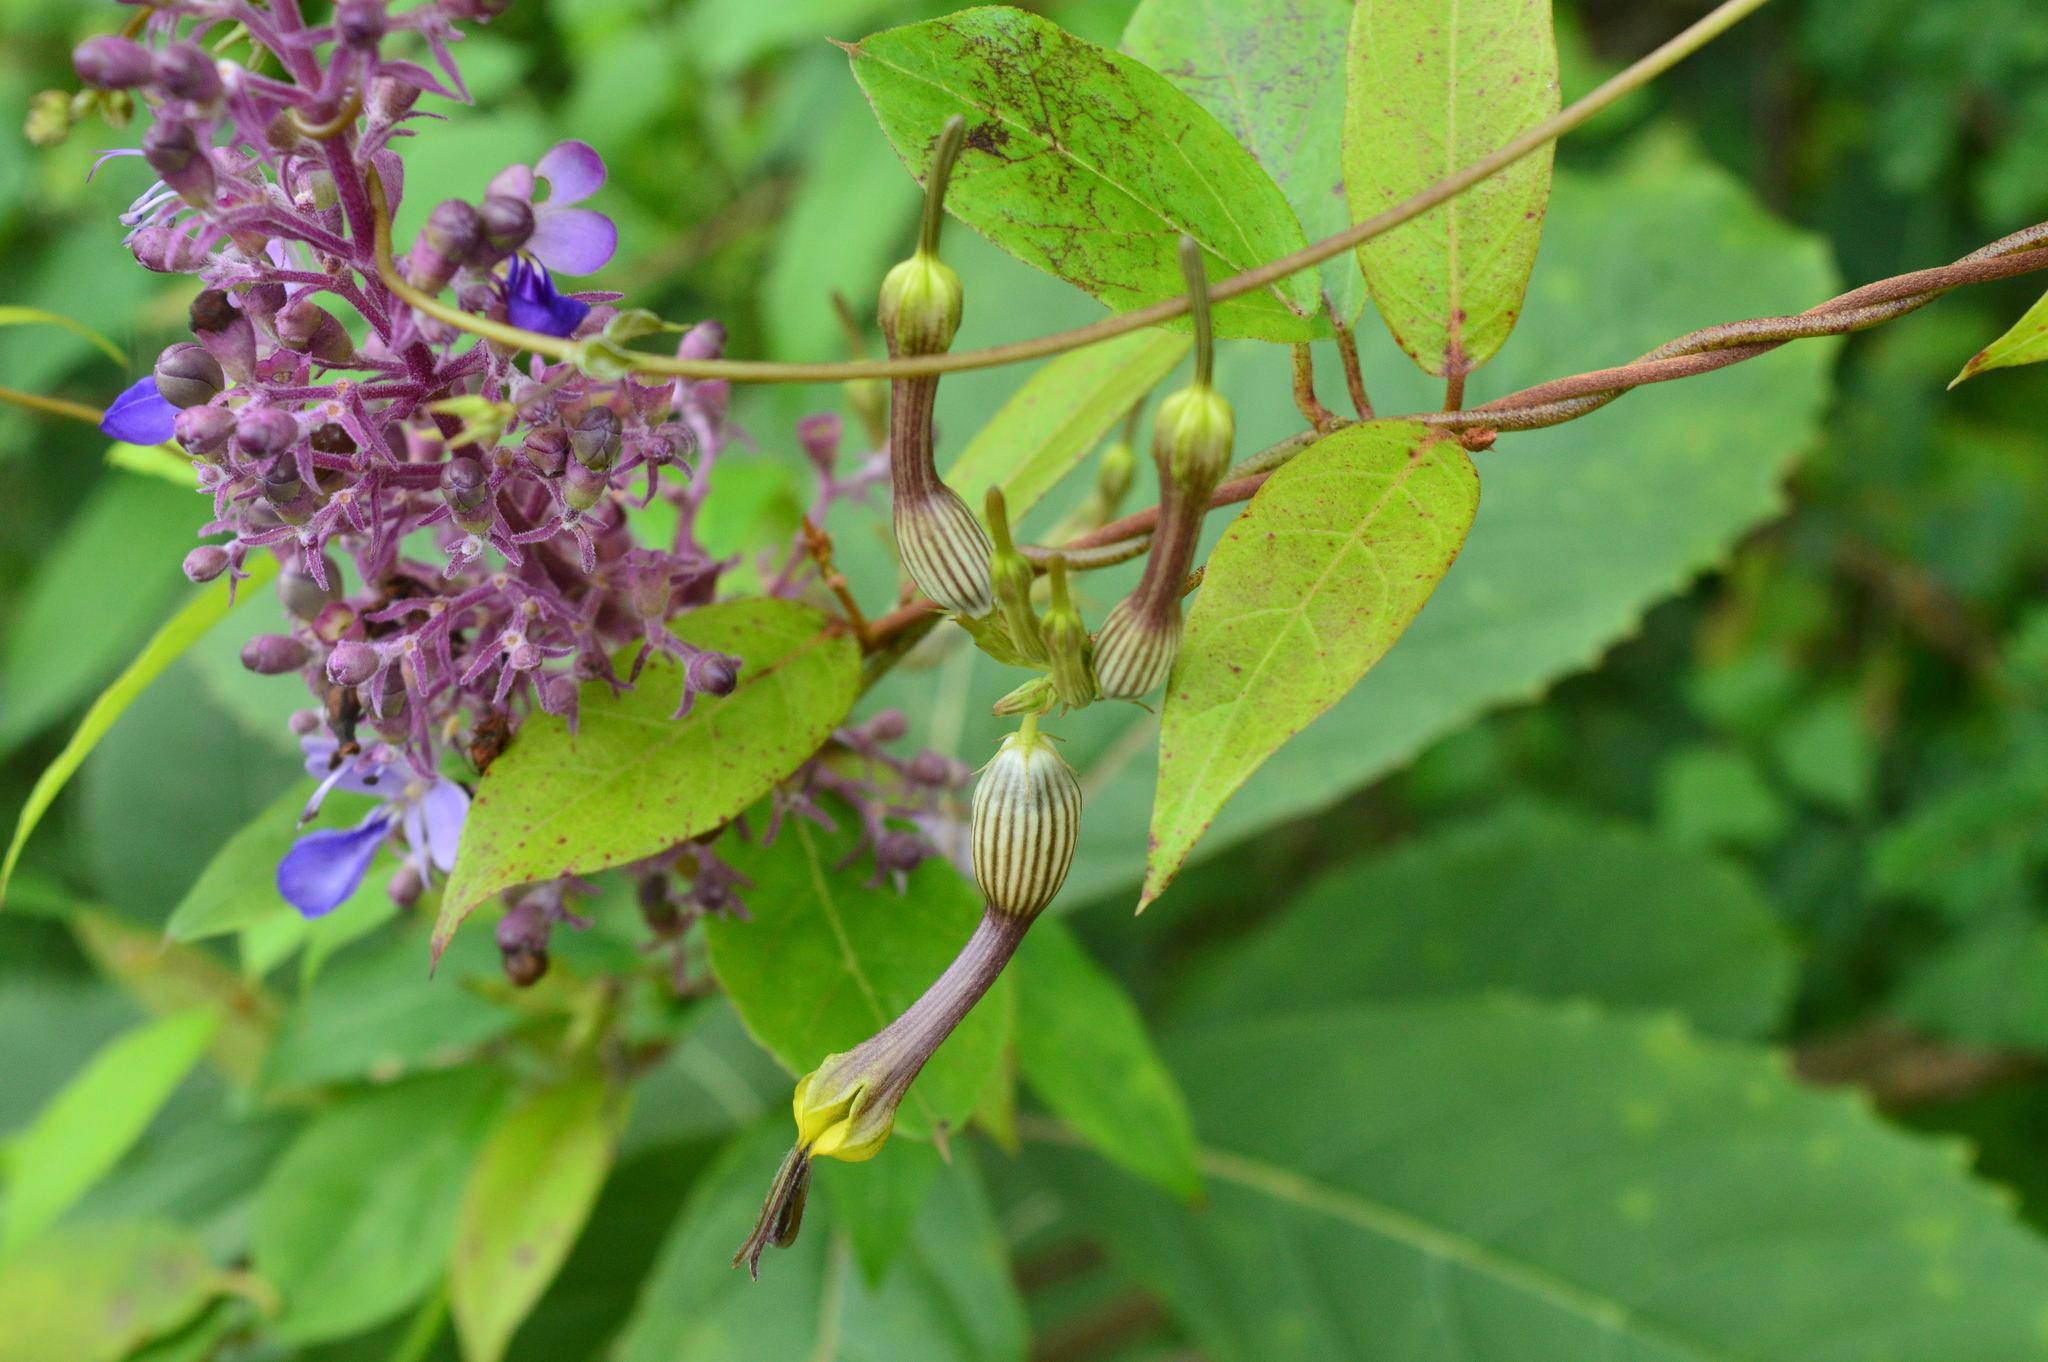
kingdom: Plantae
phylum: Tracheophyta
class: Magnoliopsida
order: Gentianales
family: Apocynaceae
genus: Ceropegia
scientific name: Ceropegia candelabrum
